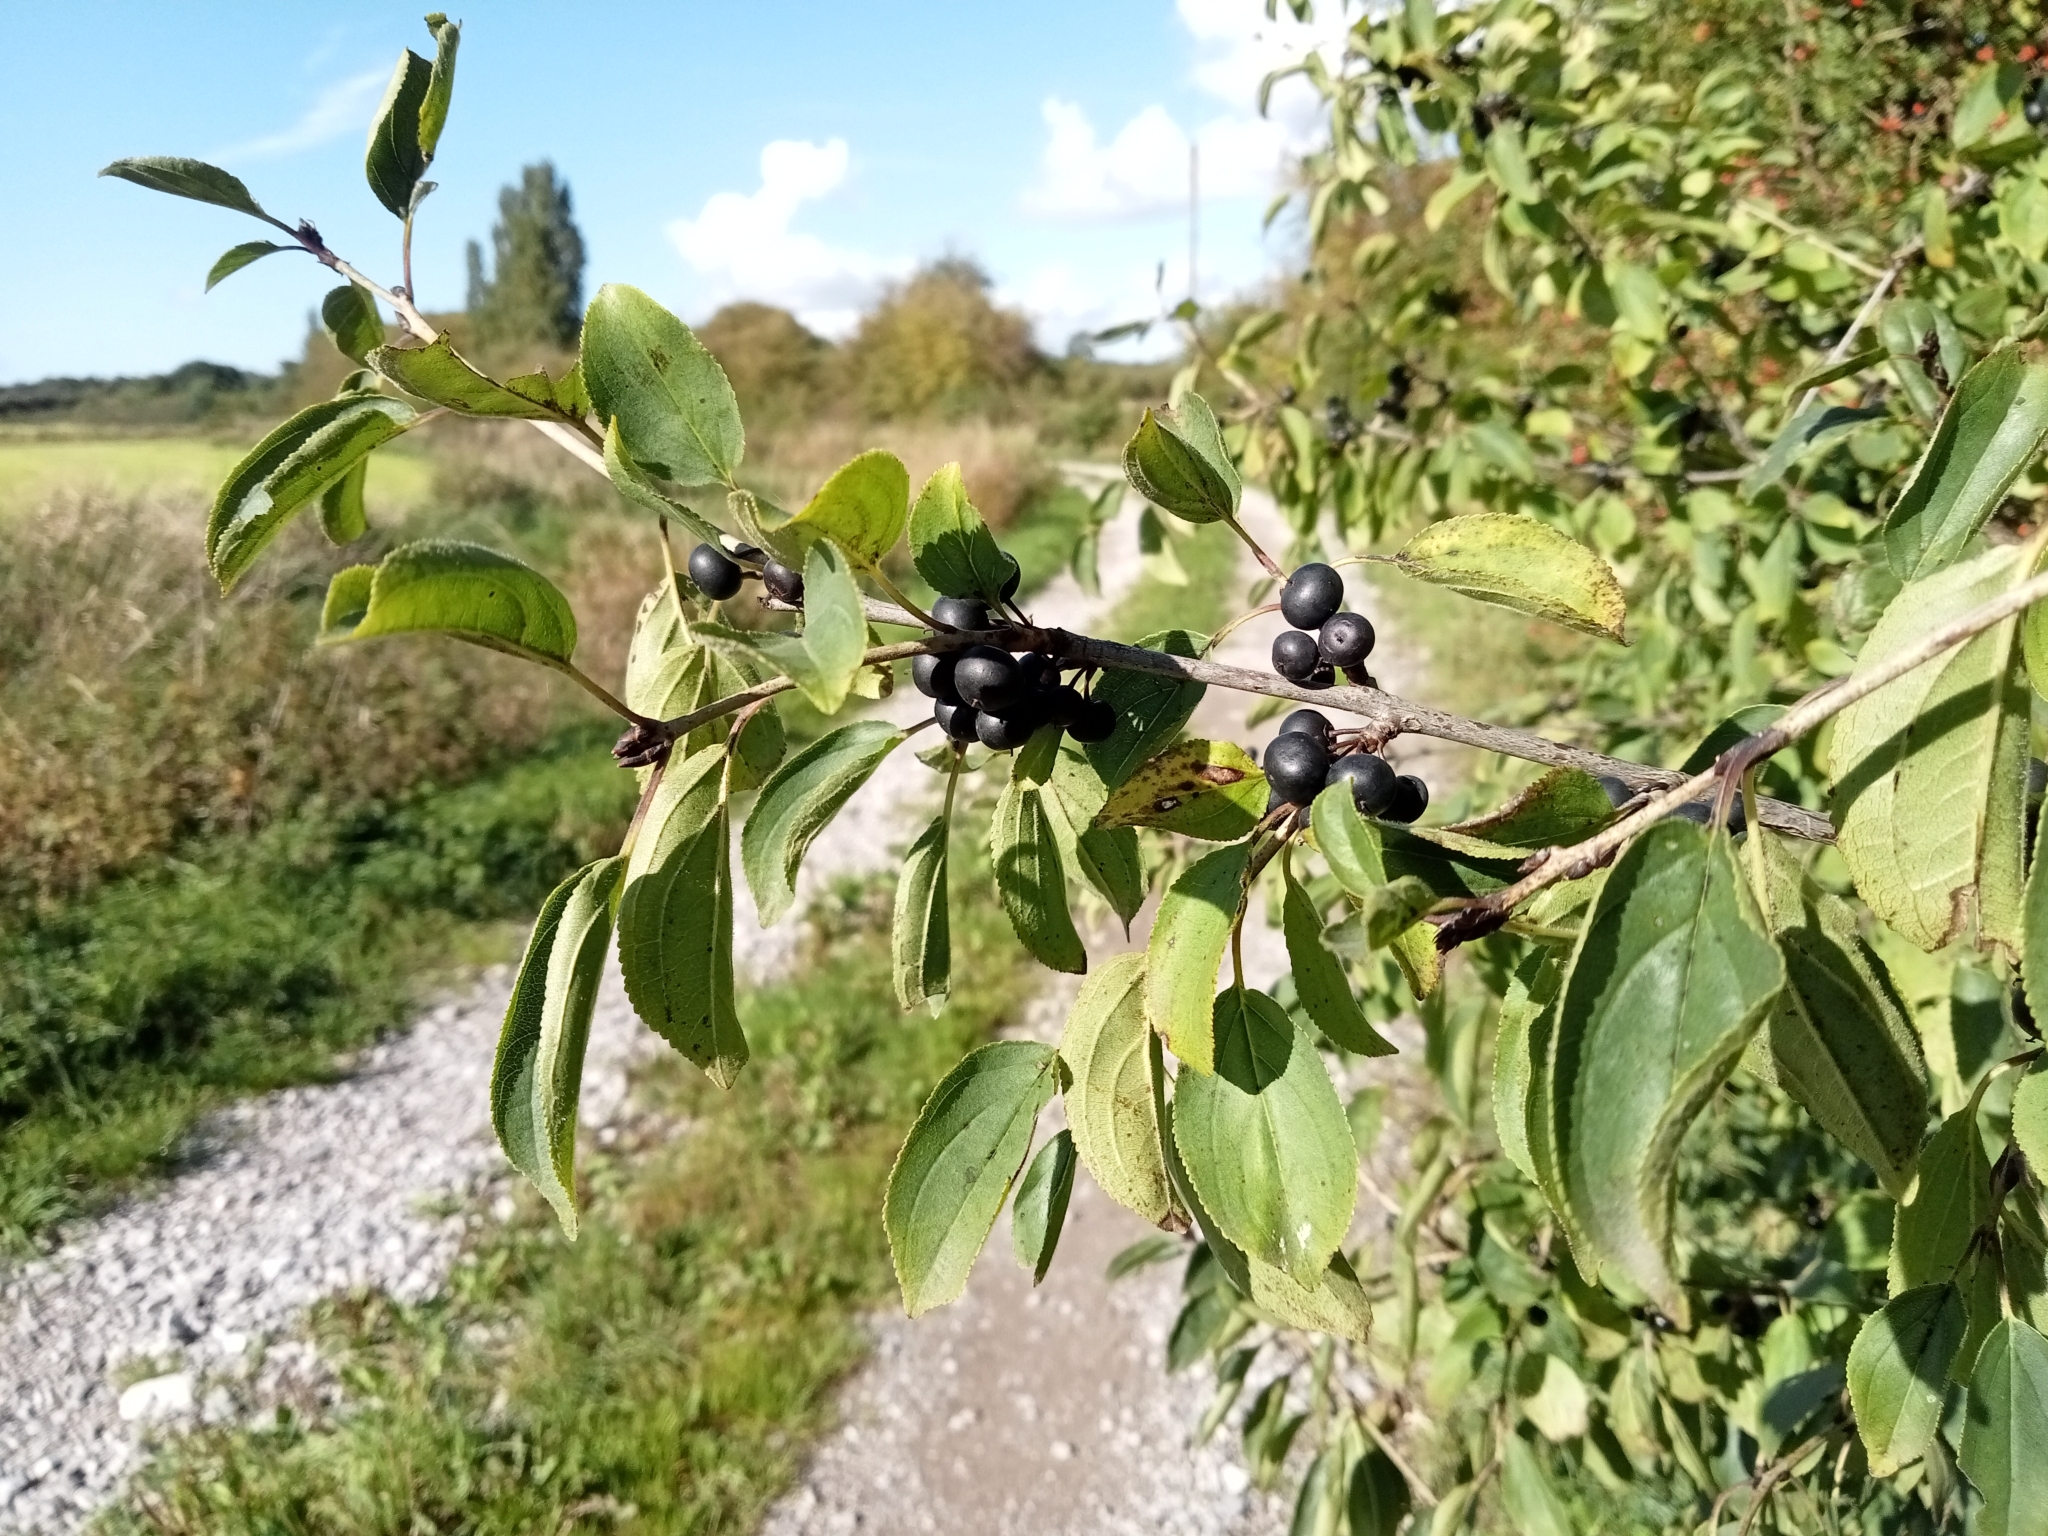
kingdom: Plantae
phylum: Tracheophyta
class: Magnoliopsida
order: Rosales
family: Rhamnaceae
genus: Rhamnus
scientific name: Rhamnus cathartica
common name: Common buckthorn
